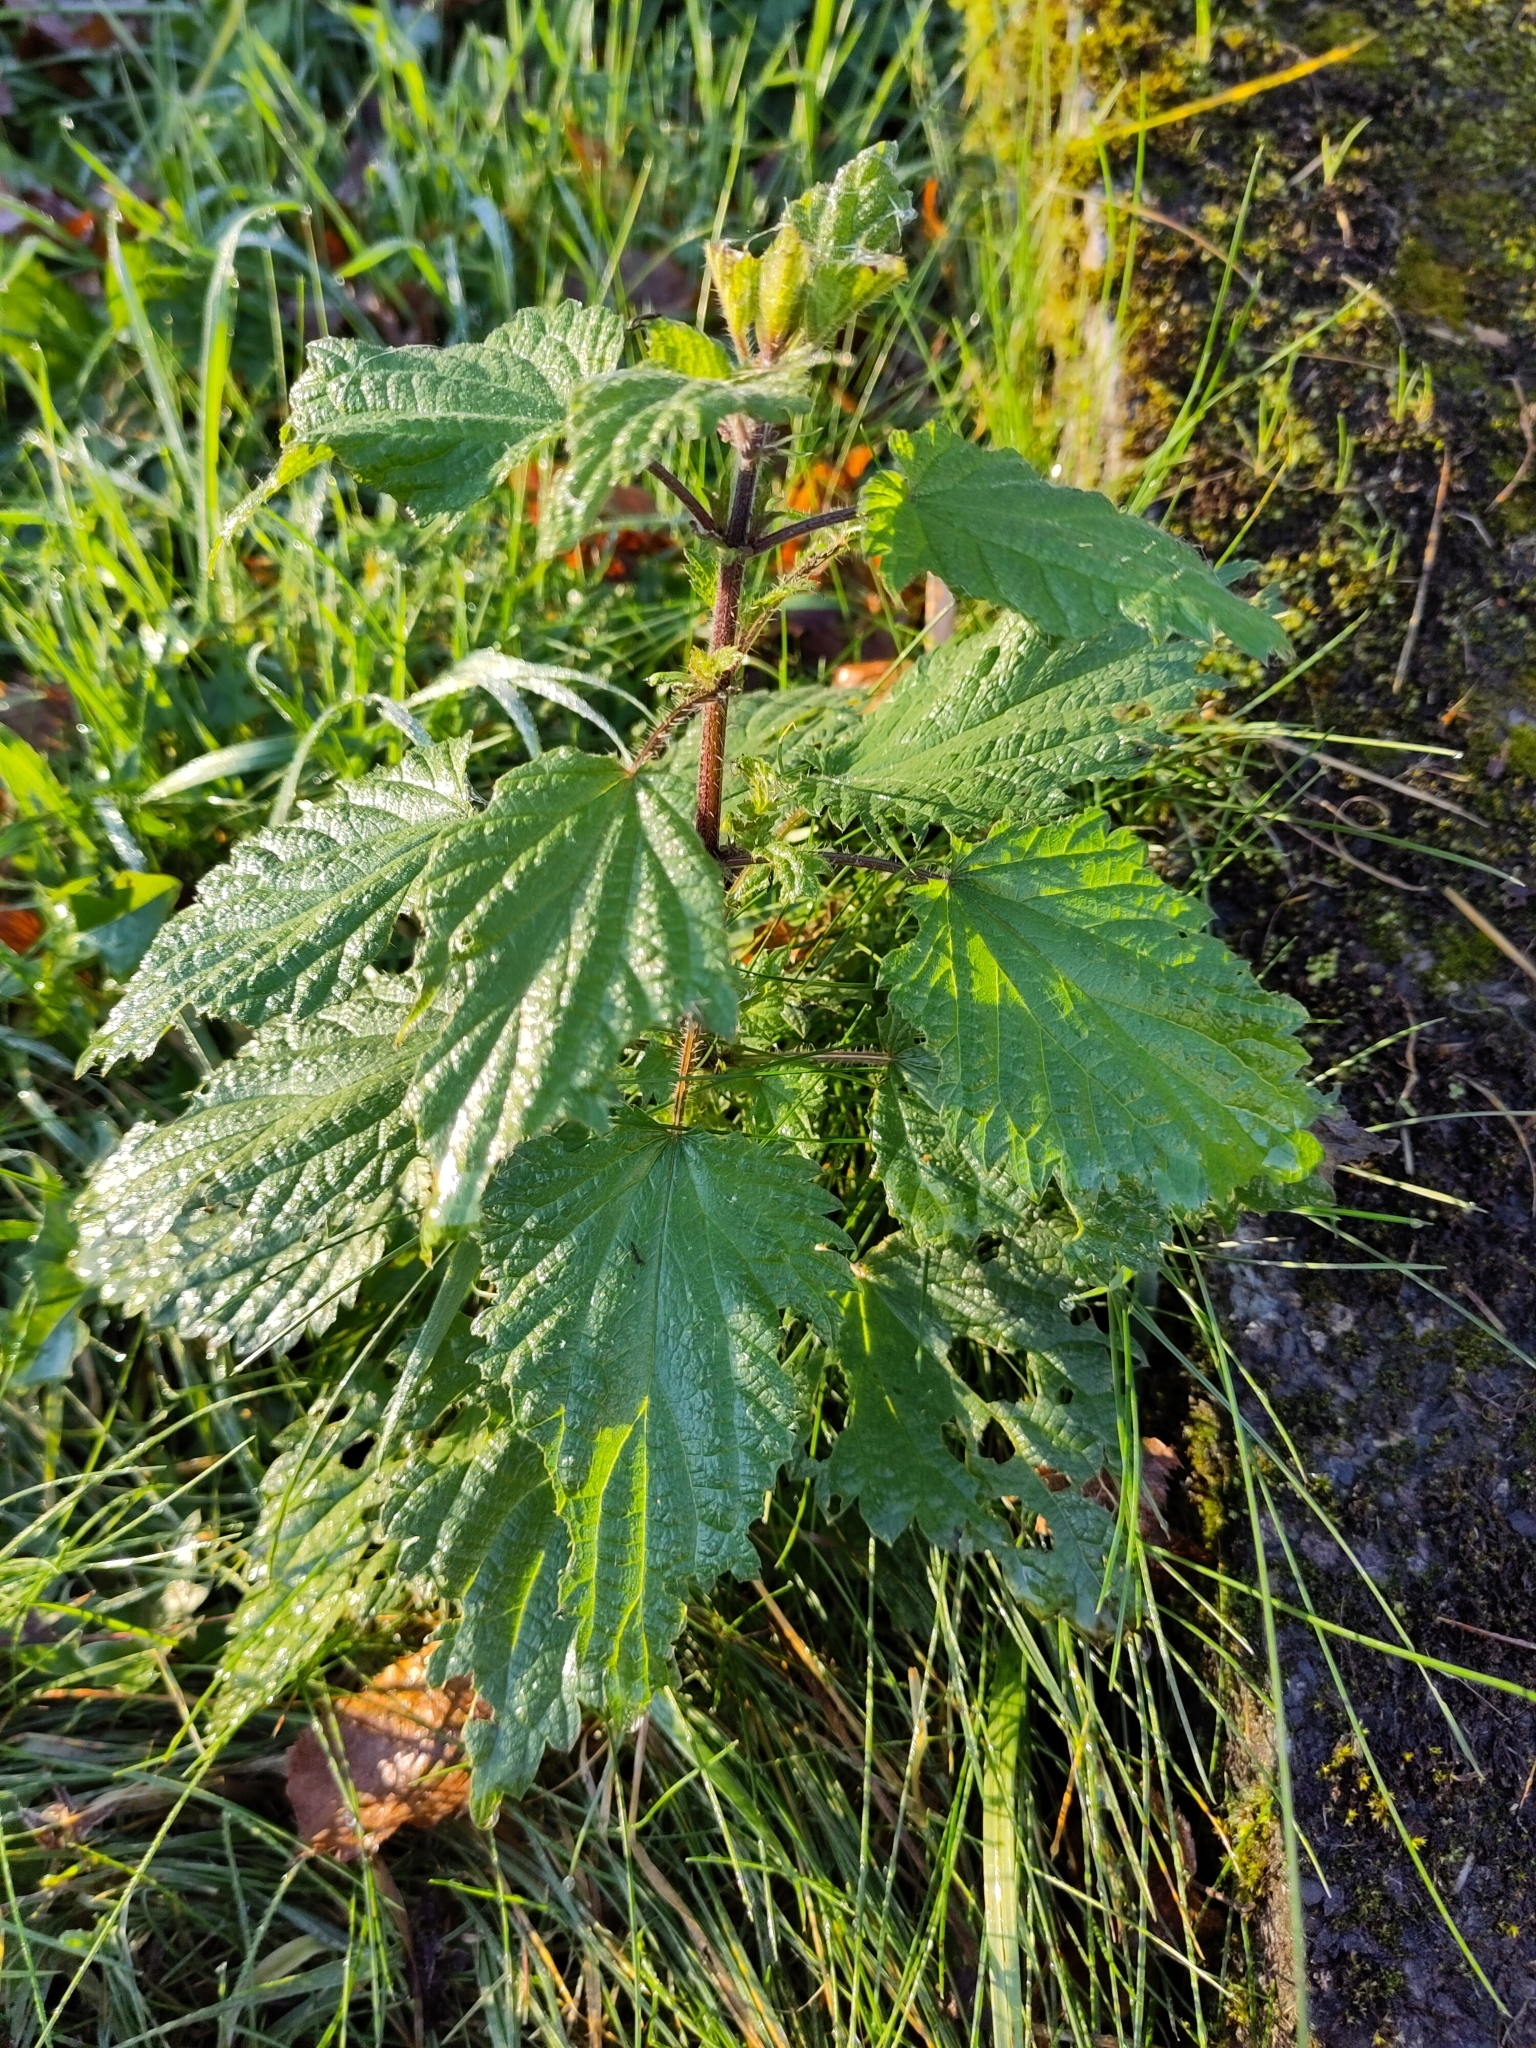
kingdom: Plantae
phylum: Tracheophyta
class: Magnoliopsida
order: Rosales
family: Urticaceae
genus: Urtica
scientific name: Urtica dioica
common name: Common nettle
